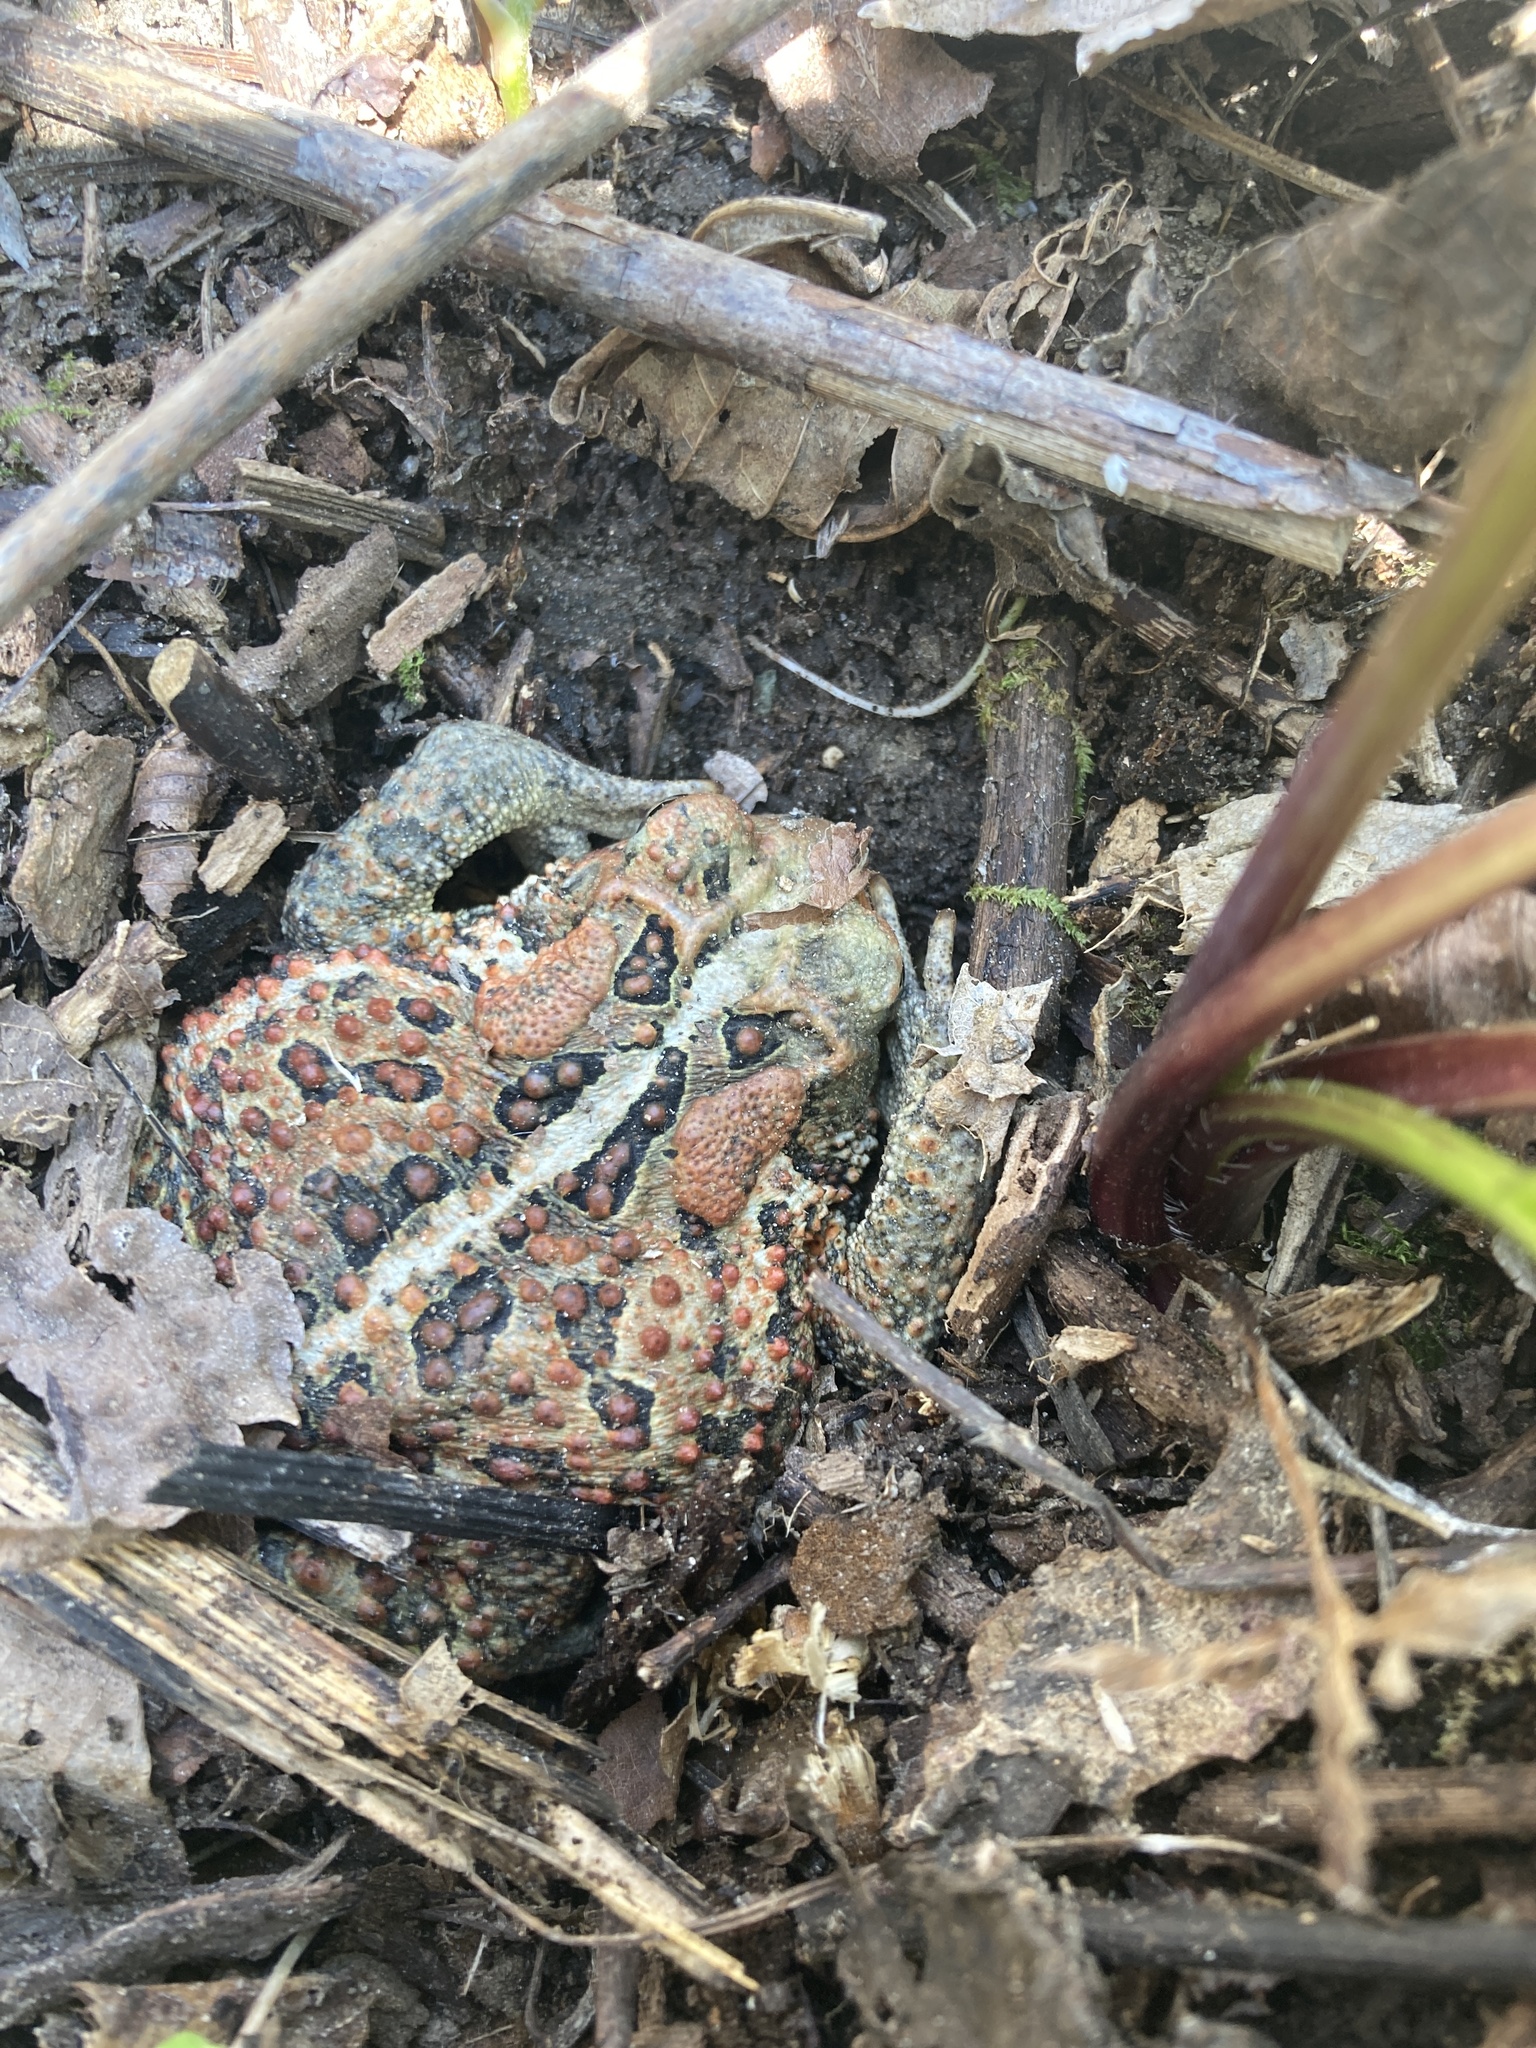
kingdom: Animalia
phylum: Chordata
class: Amphibia
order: Anura
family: Bufonidae
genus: Anaxyrus
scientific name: Anaxyrus americanus
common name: American toad
